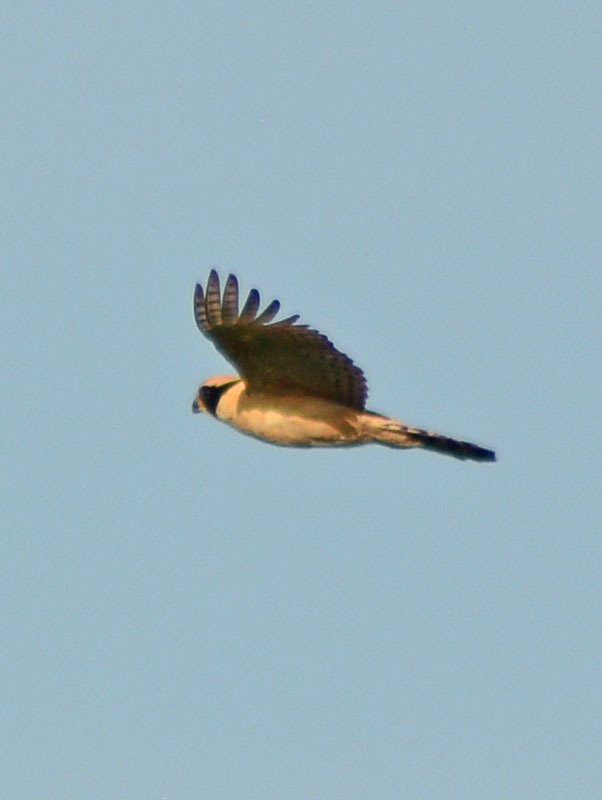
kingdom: Animalia
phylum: Chordata
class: Aves
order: Falconiformes
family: Falconidae
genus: Herpetotheres
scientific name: Herpetotheres cachinnans
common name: Laughing falcon
